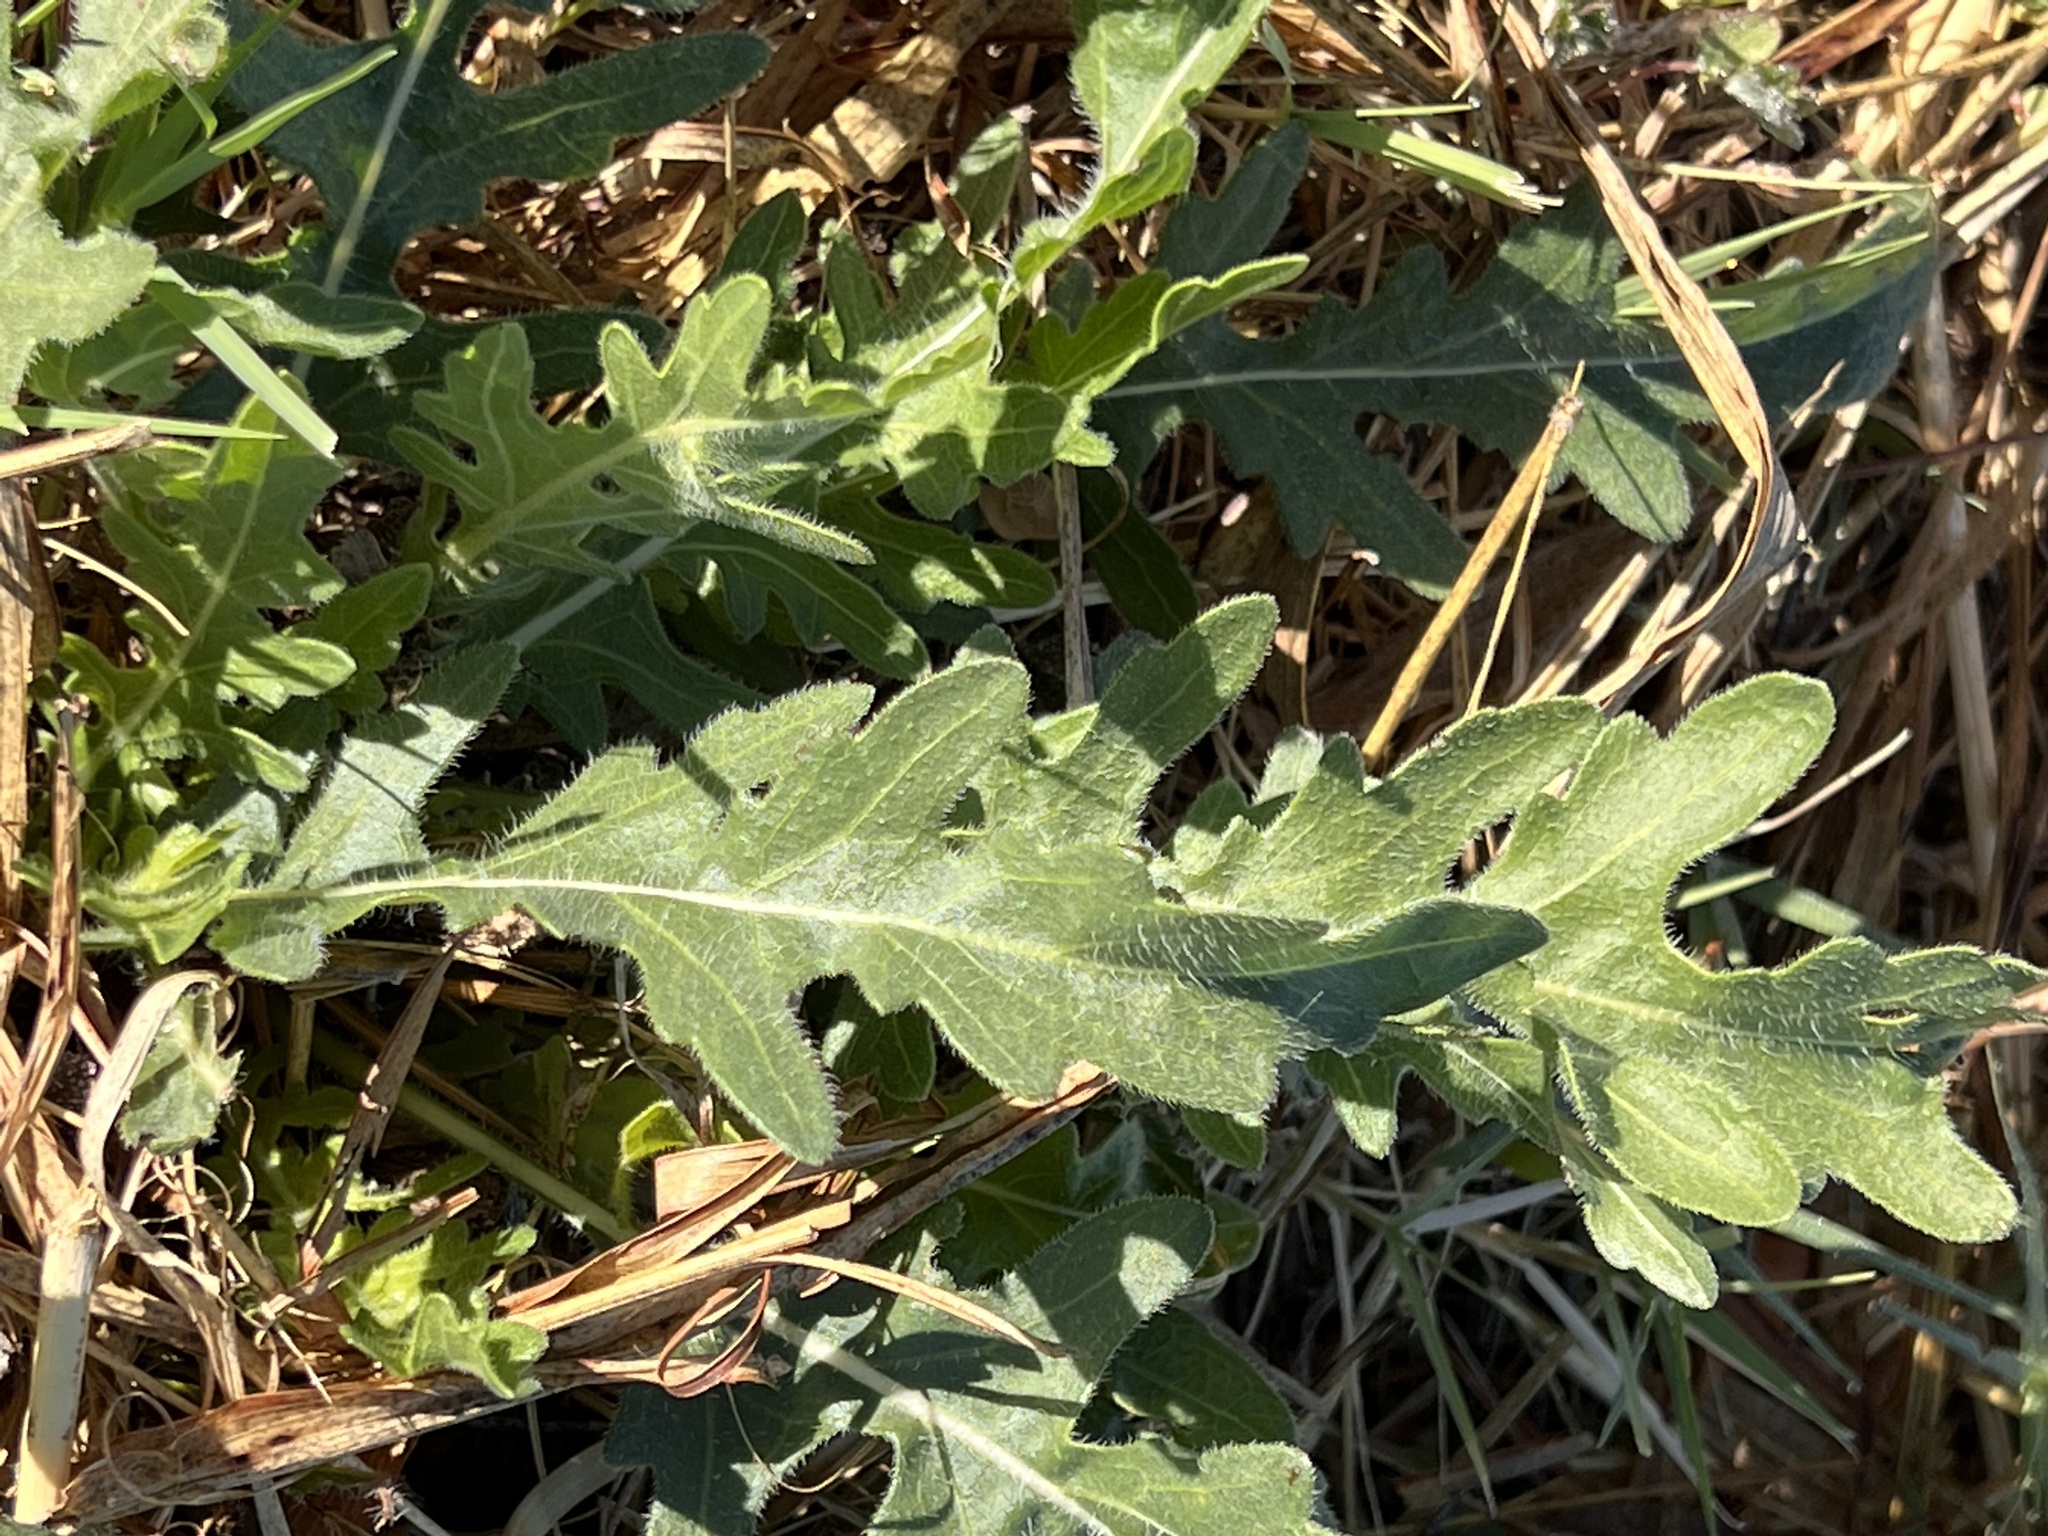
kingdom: Plantae
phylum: Tracheophyta
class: Magnoliopsida
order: Asterales
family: Asteraceae
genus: Engelmannia
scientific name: Engelmannia peristenia
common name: Engelmann's daisy
